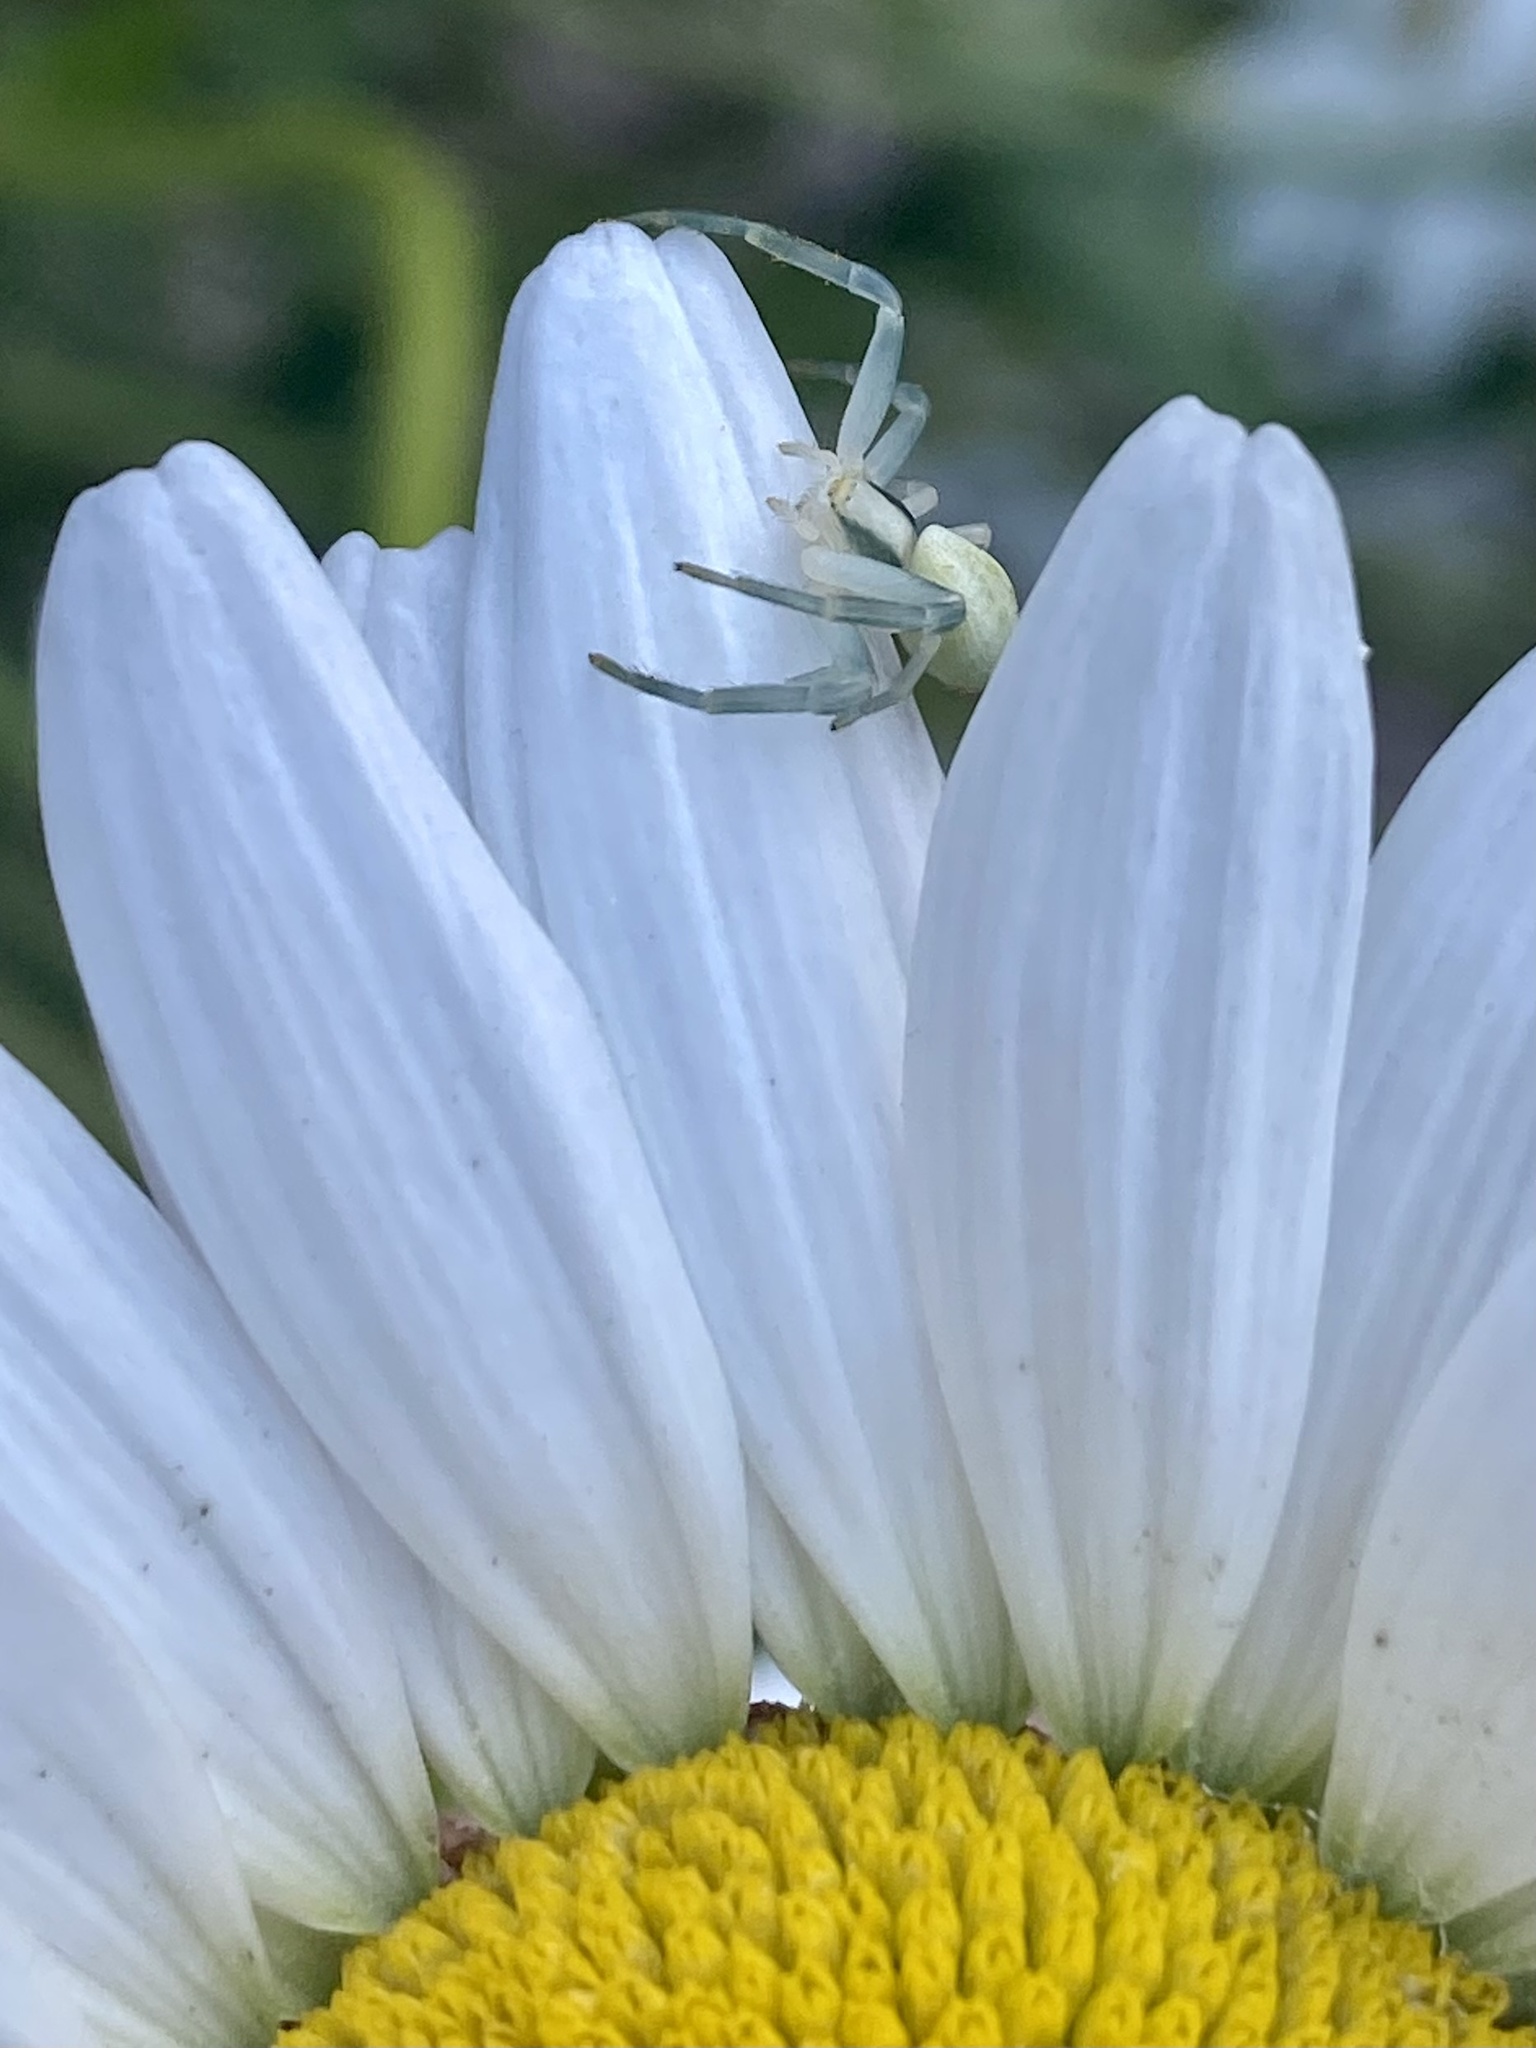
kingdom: Animalia
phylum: Arthropoda
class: Arachnida
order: Araneae
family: Thomisidae
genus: Misumena
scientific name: Misumena vatia
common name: Goldenrod crab spider
